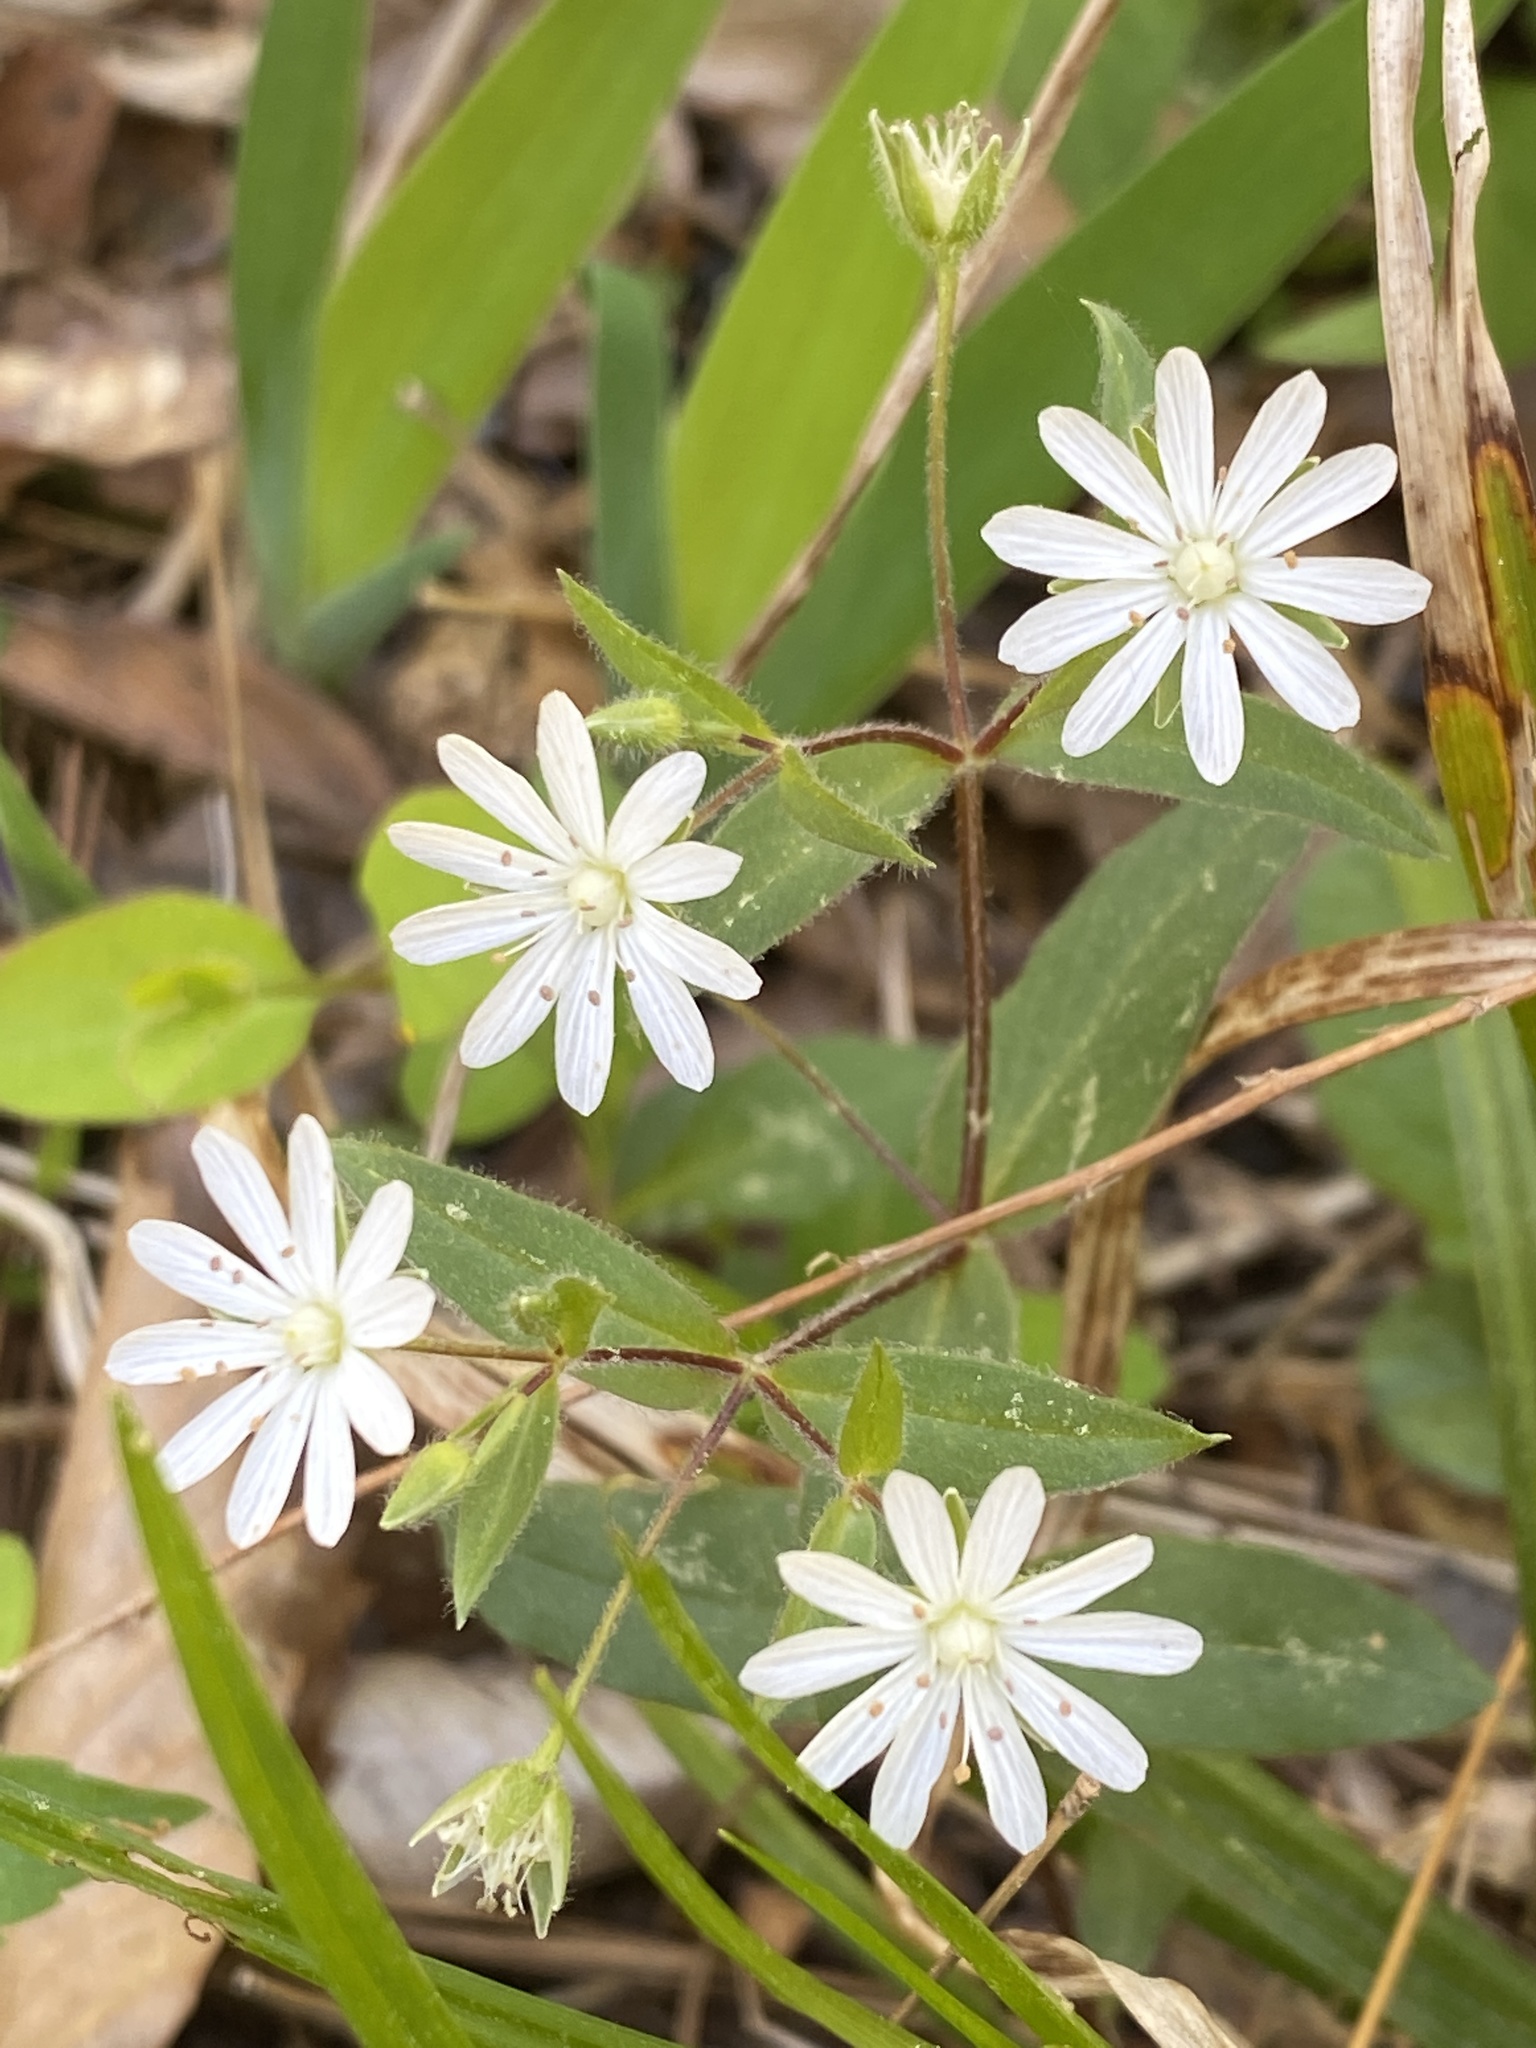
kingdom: Plantae
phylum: Tracheophyta
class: Magnoliopsida
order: Caryophyllales
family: Caryophyllaceae
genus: Stellaria
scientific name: Stellaria pubera
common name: Star chickweed
